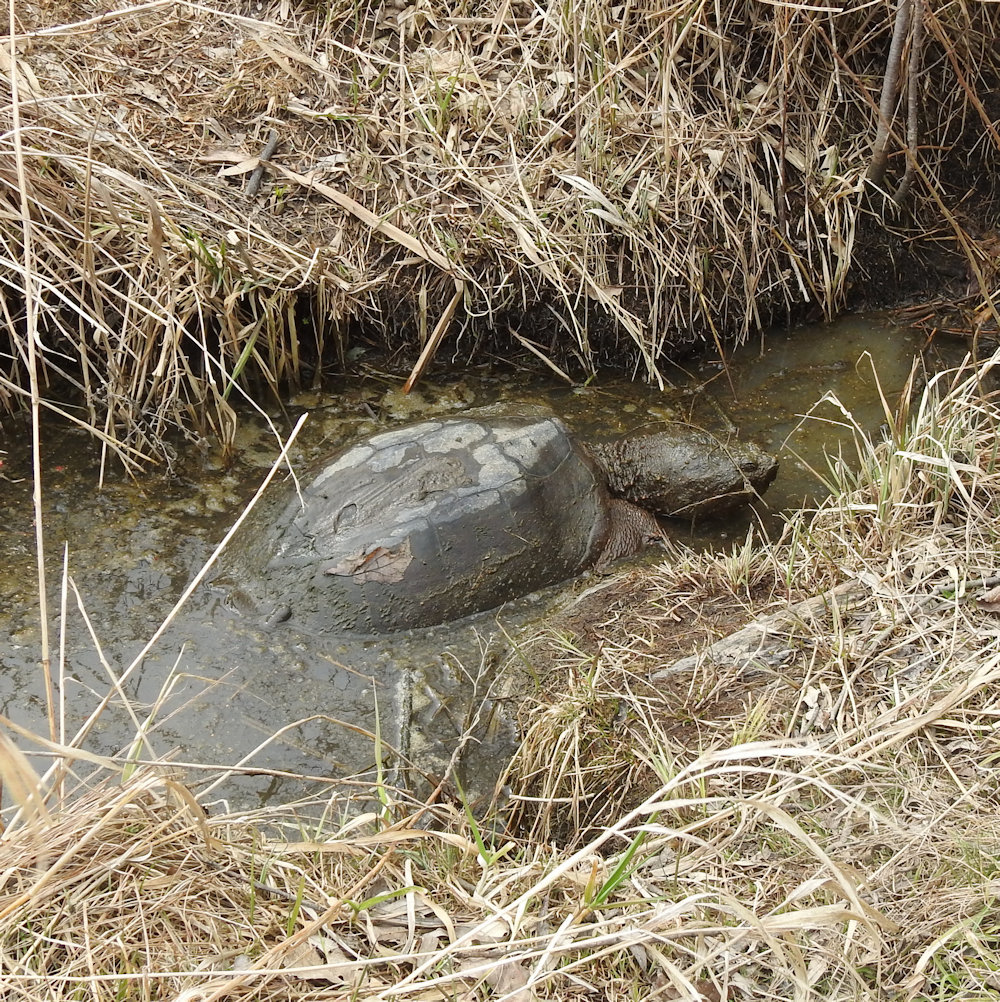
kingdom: Animalia
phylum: Chordata
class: Testudines
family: Chelydridae
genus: Chelydra
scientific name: Chelydra serpentina
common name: Common snapping turtle
